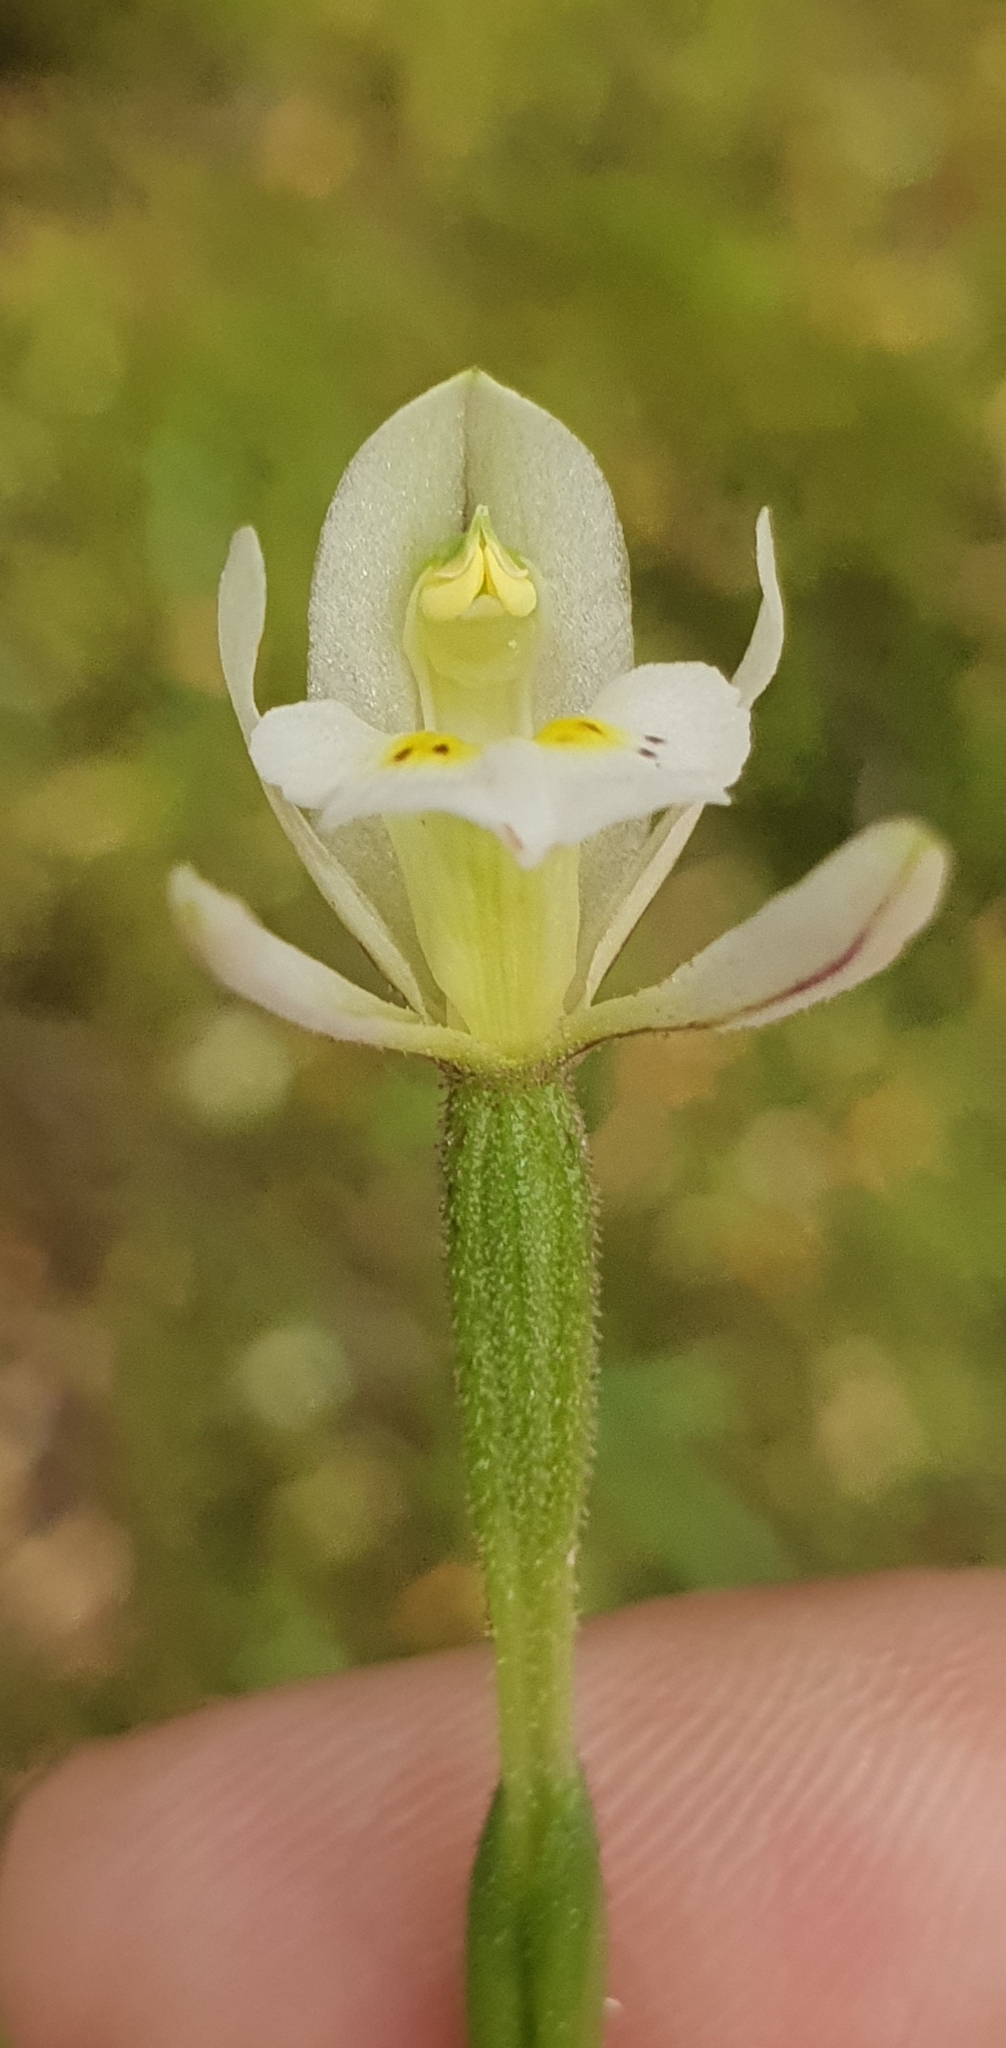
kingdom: Plantae
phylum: Tracheophyta
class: Liliopsida
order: Asparagales
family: Orchidaceae
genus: Aporostylis
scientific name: Aporostylis bifolia
